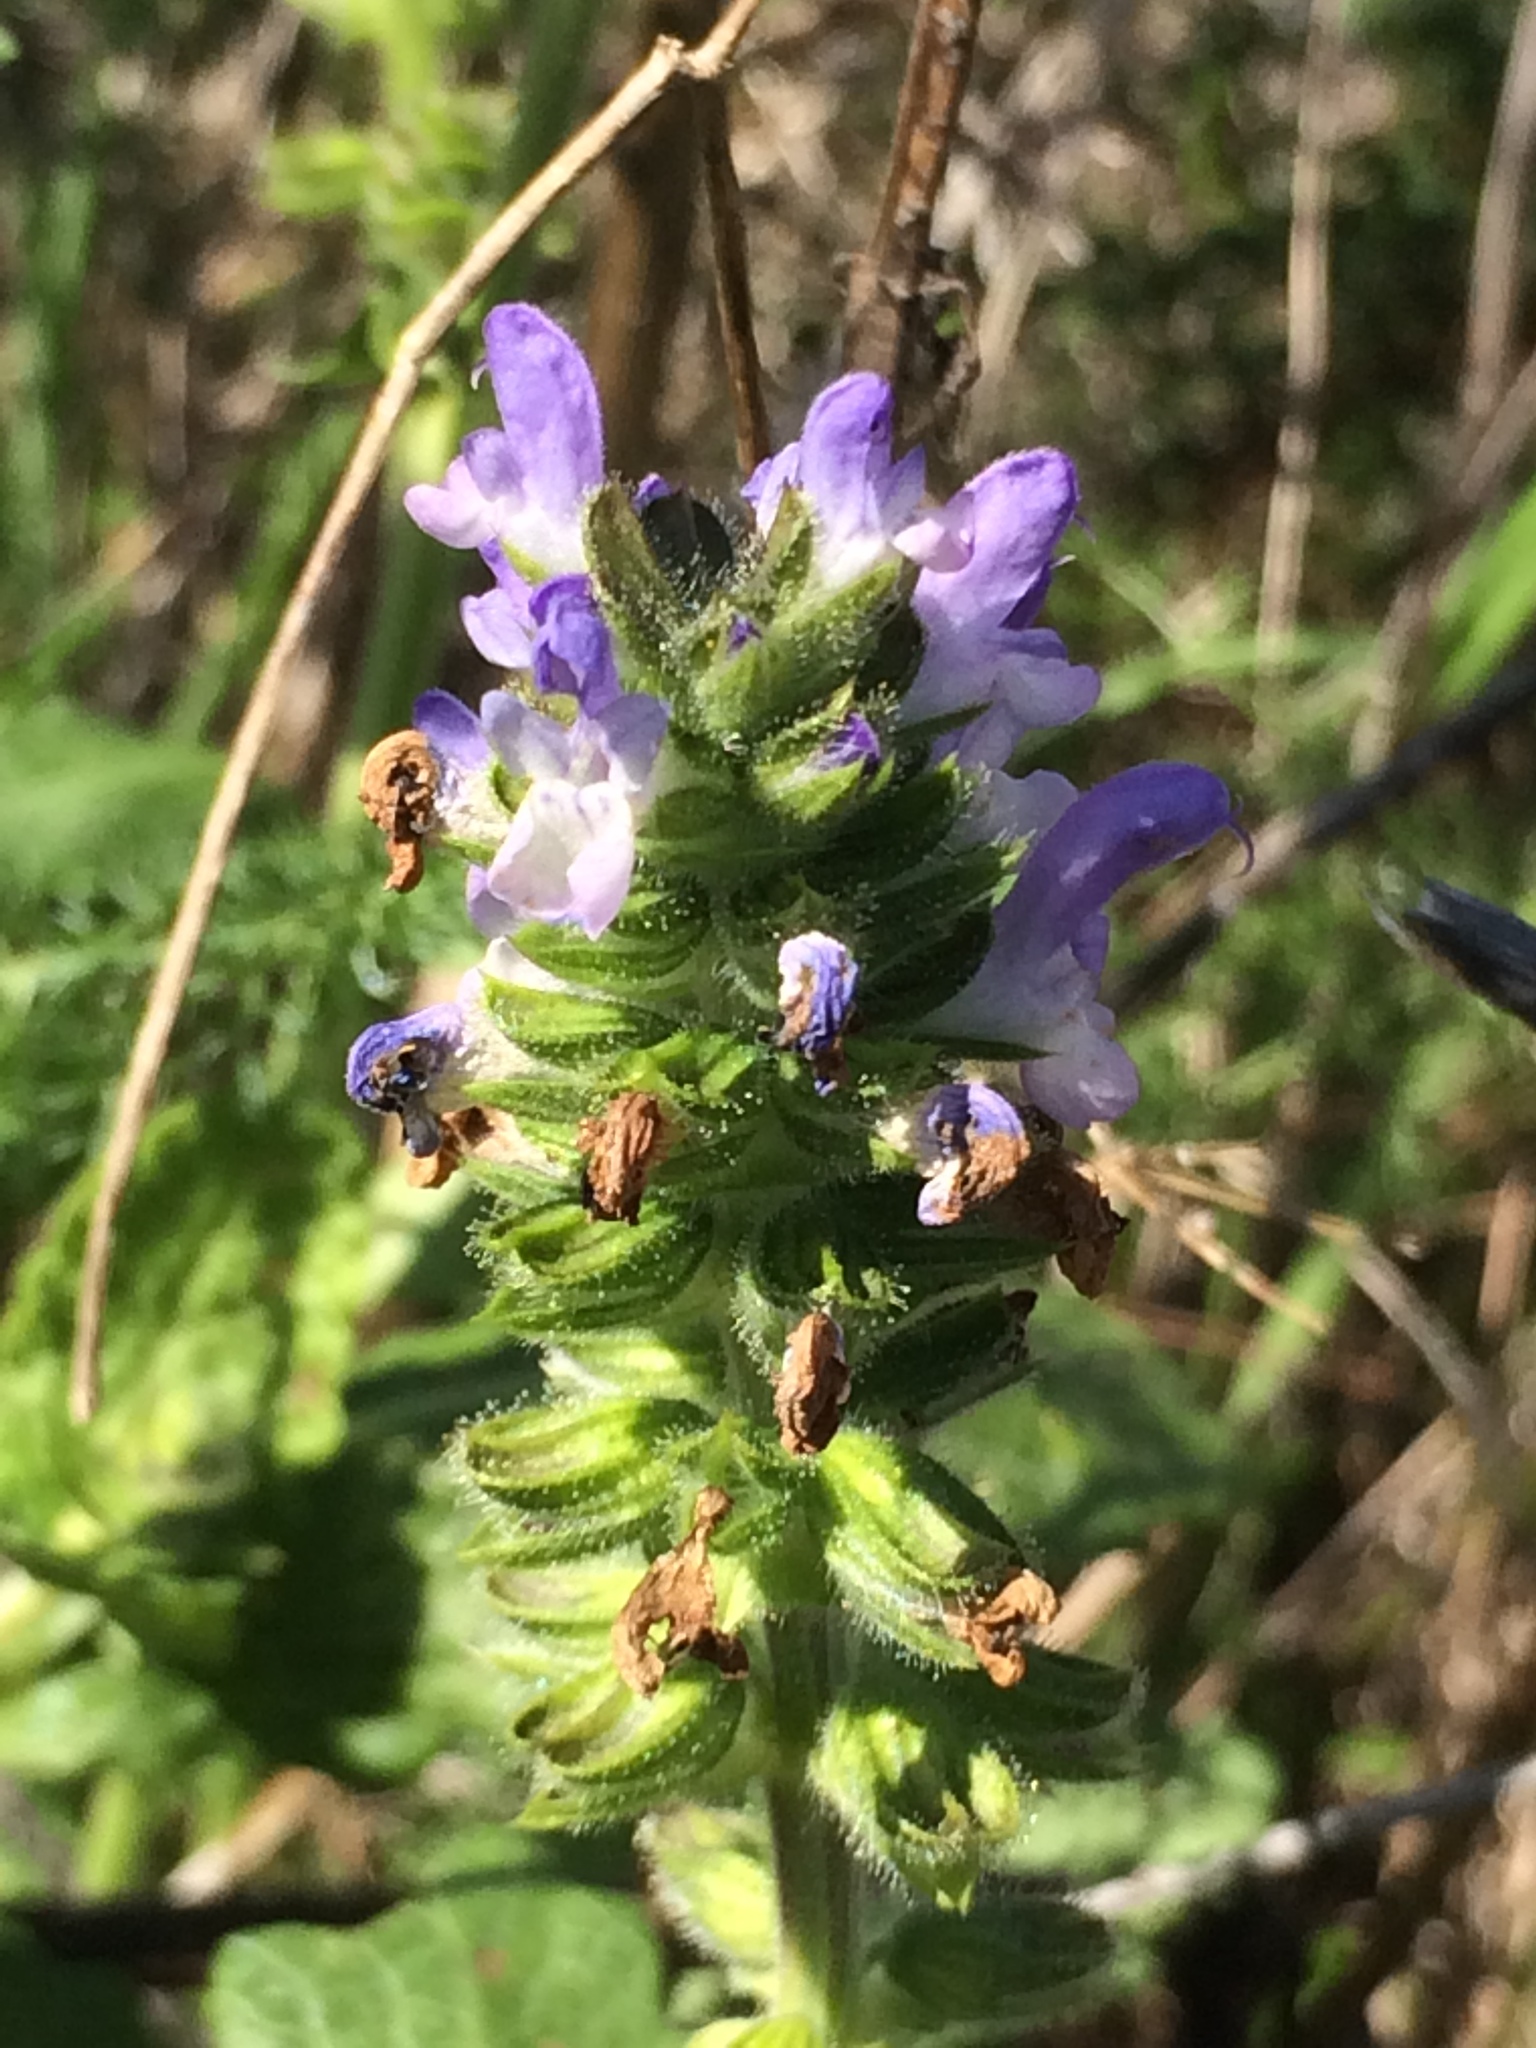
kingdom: Plantae
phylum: Tracheophyta
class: Magnoliopsida
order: Lamiales
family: Lamiaceae
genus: Salvia
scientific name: Salvia clandestina
